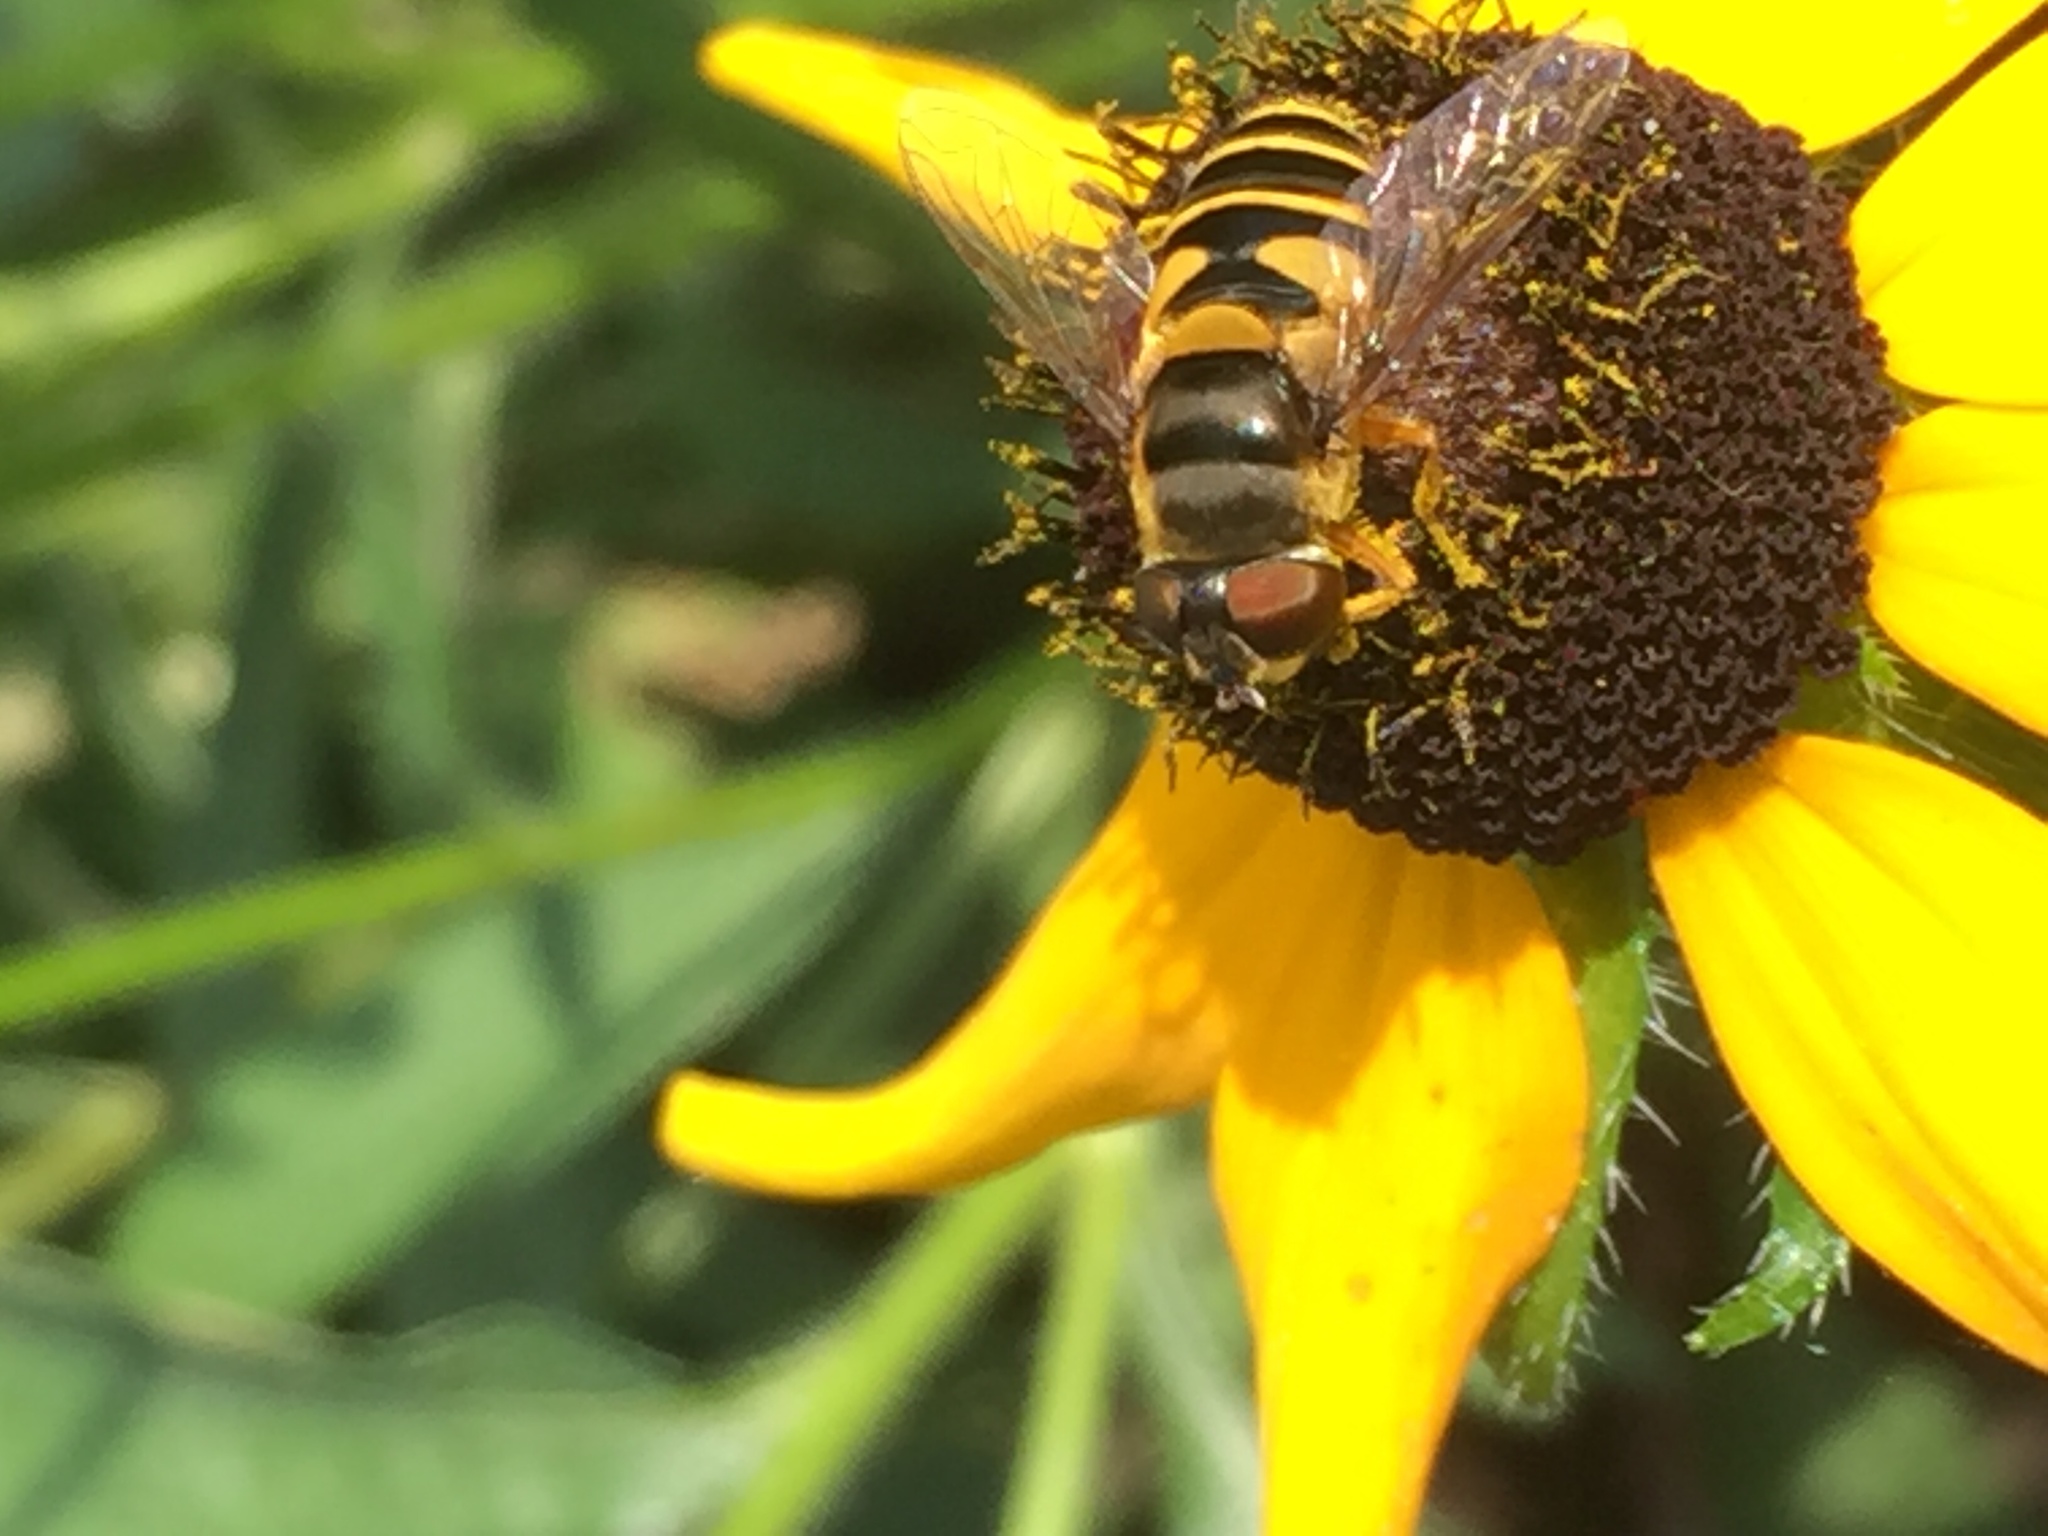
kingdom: Animalia
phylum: Arthropoda
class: Insecta
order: Diptera
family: Syrphidae
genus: Eristalis
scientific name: Eristalis transversa
